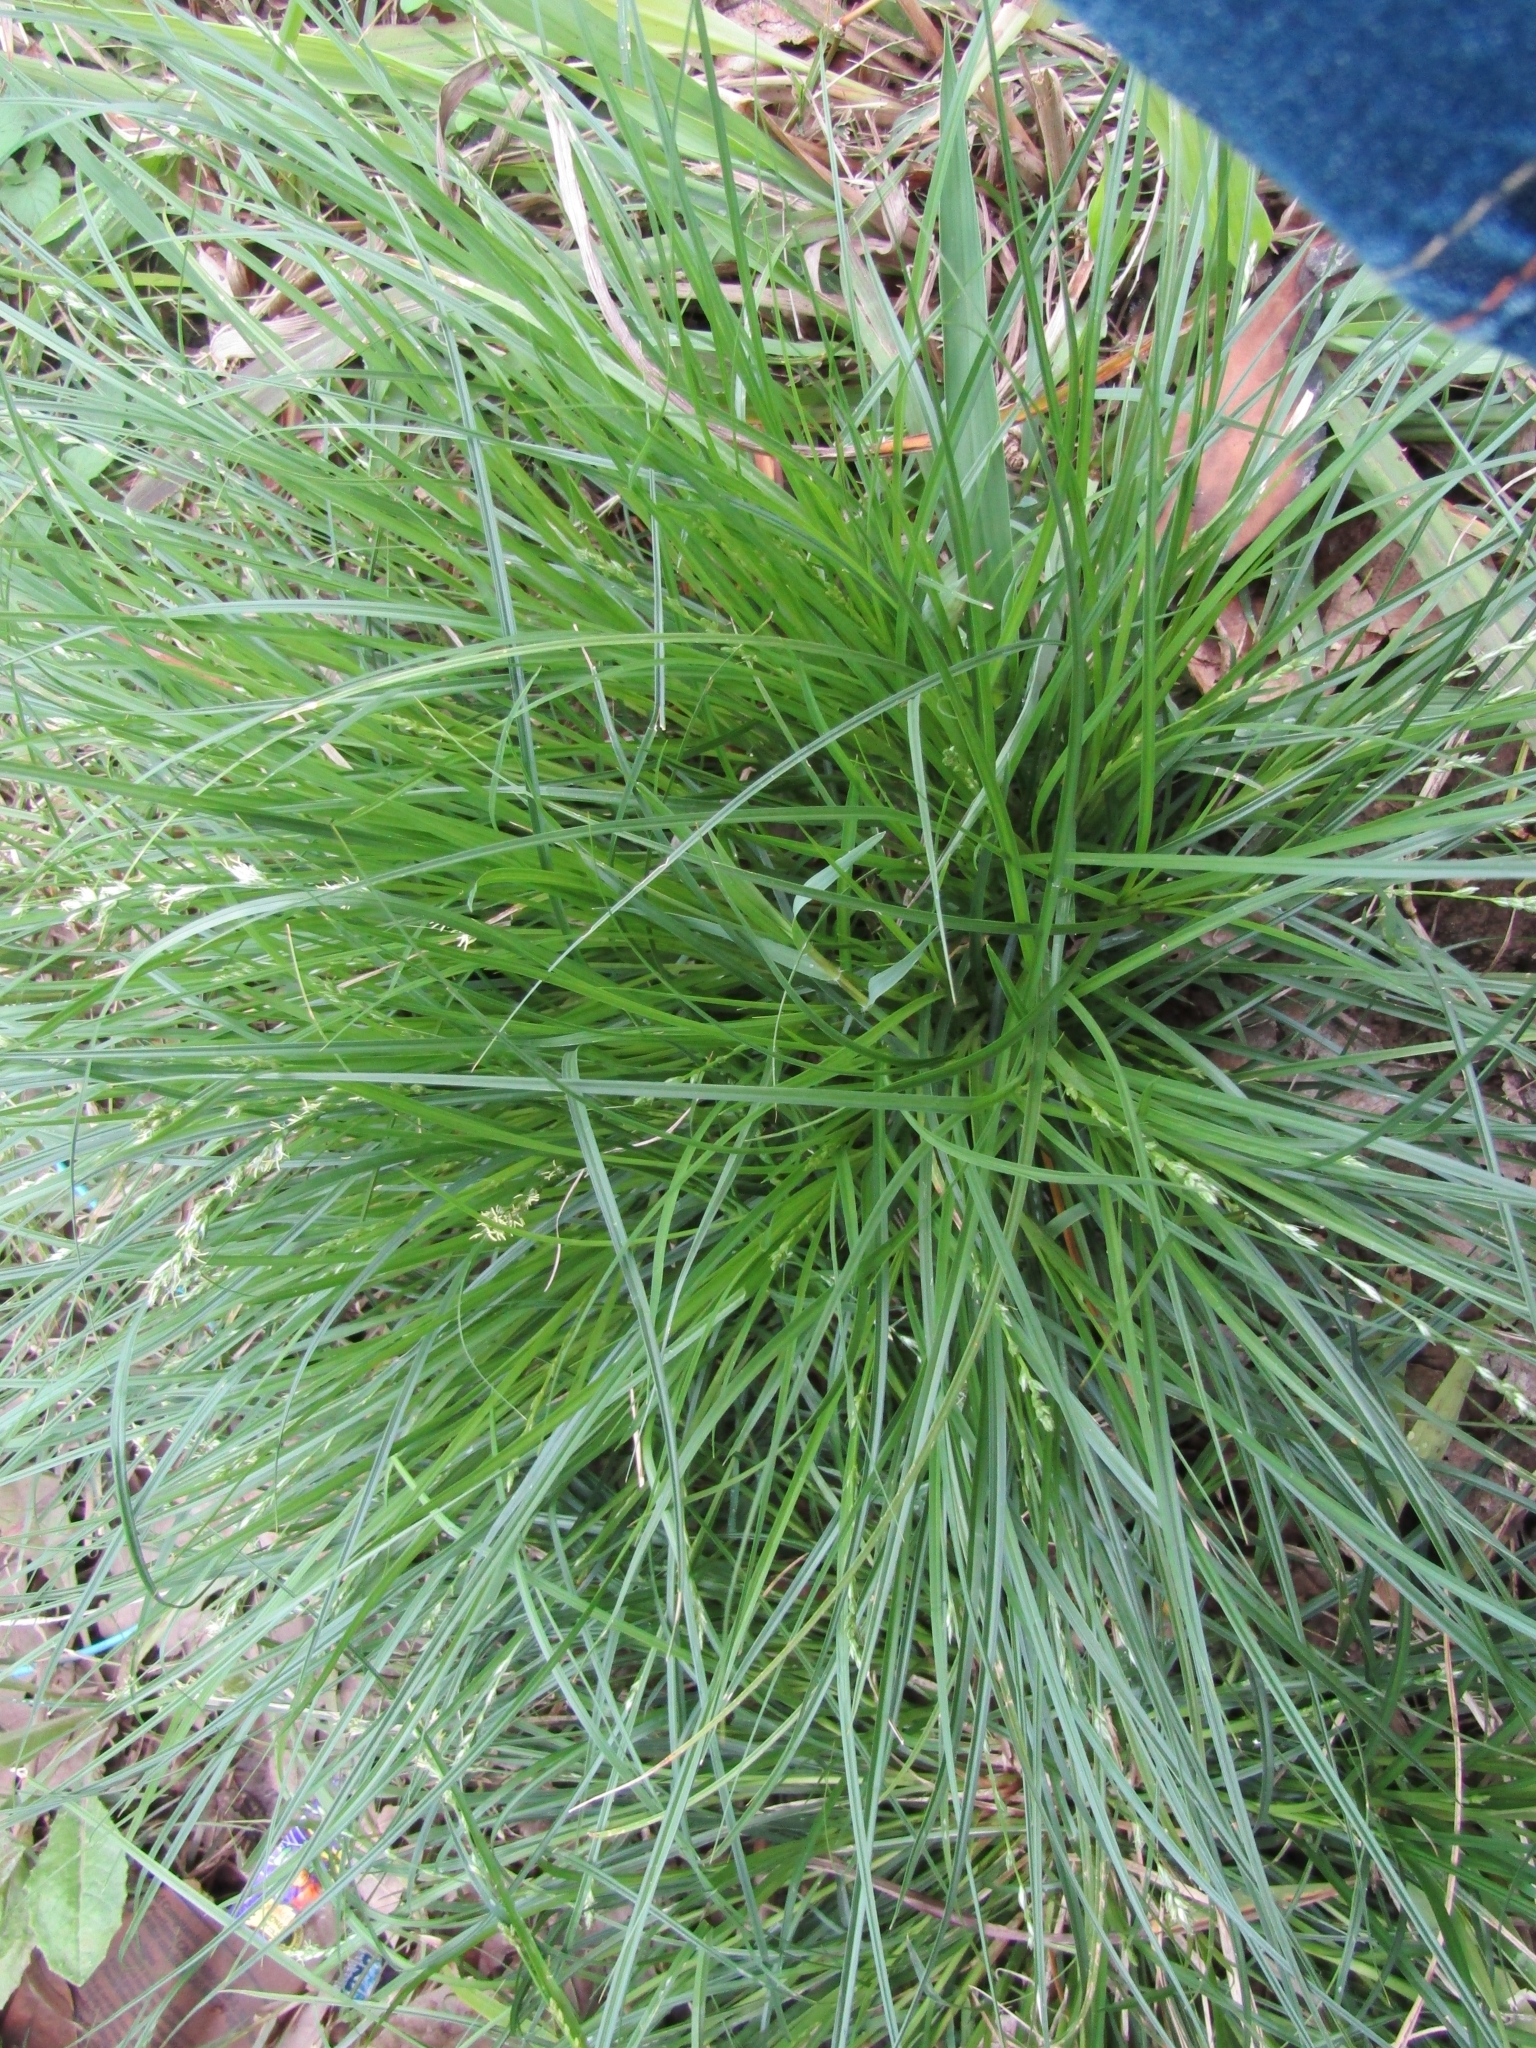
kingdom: Plantae
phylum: Tracheophyta
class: Liliopsida
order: Poales
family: Cyperaceae
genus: Carex
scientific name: Carex divulsa
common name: Grassland sedge
